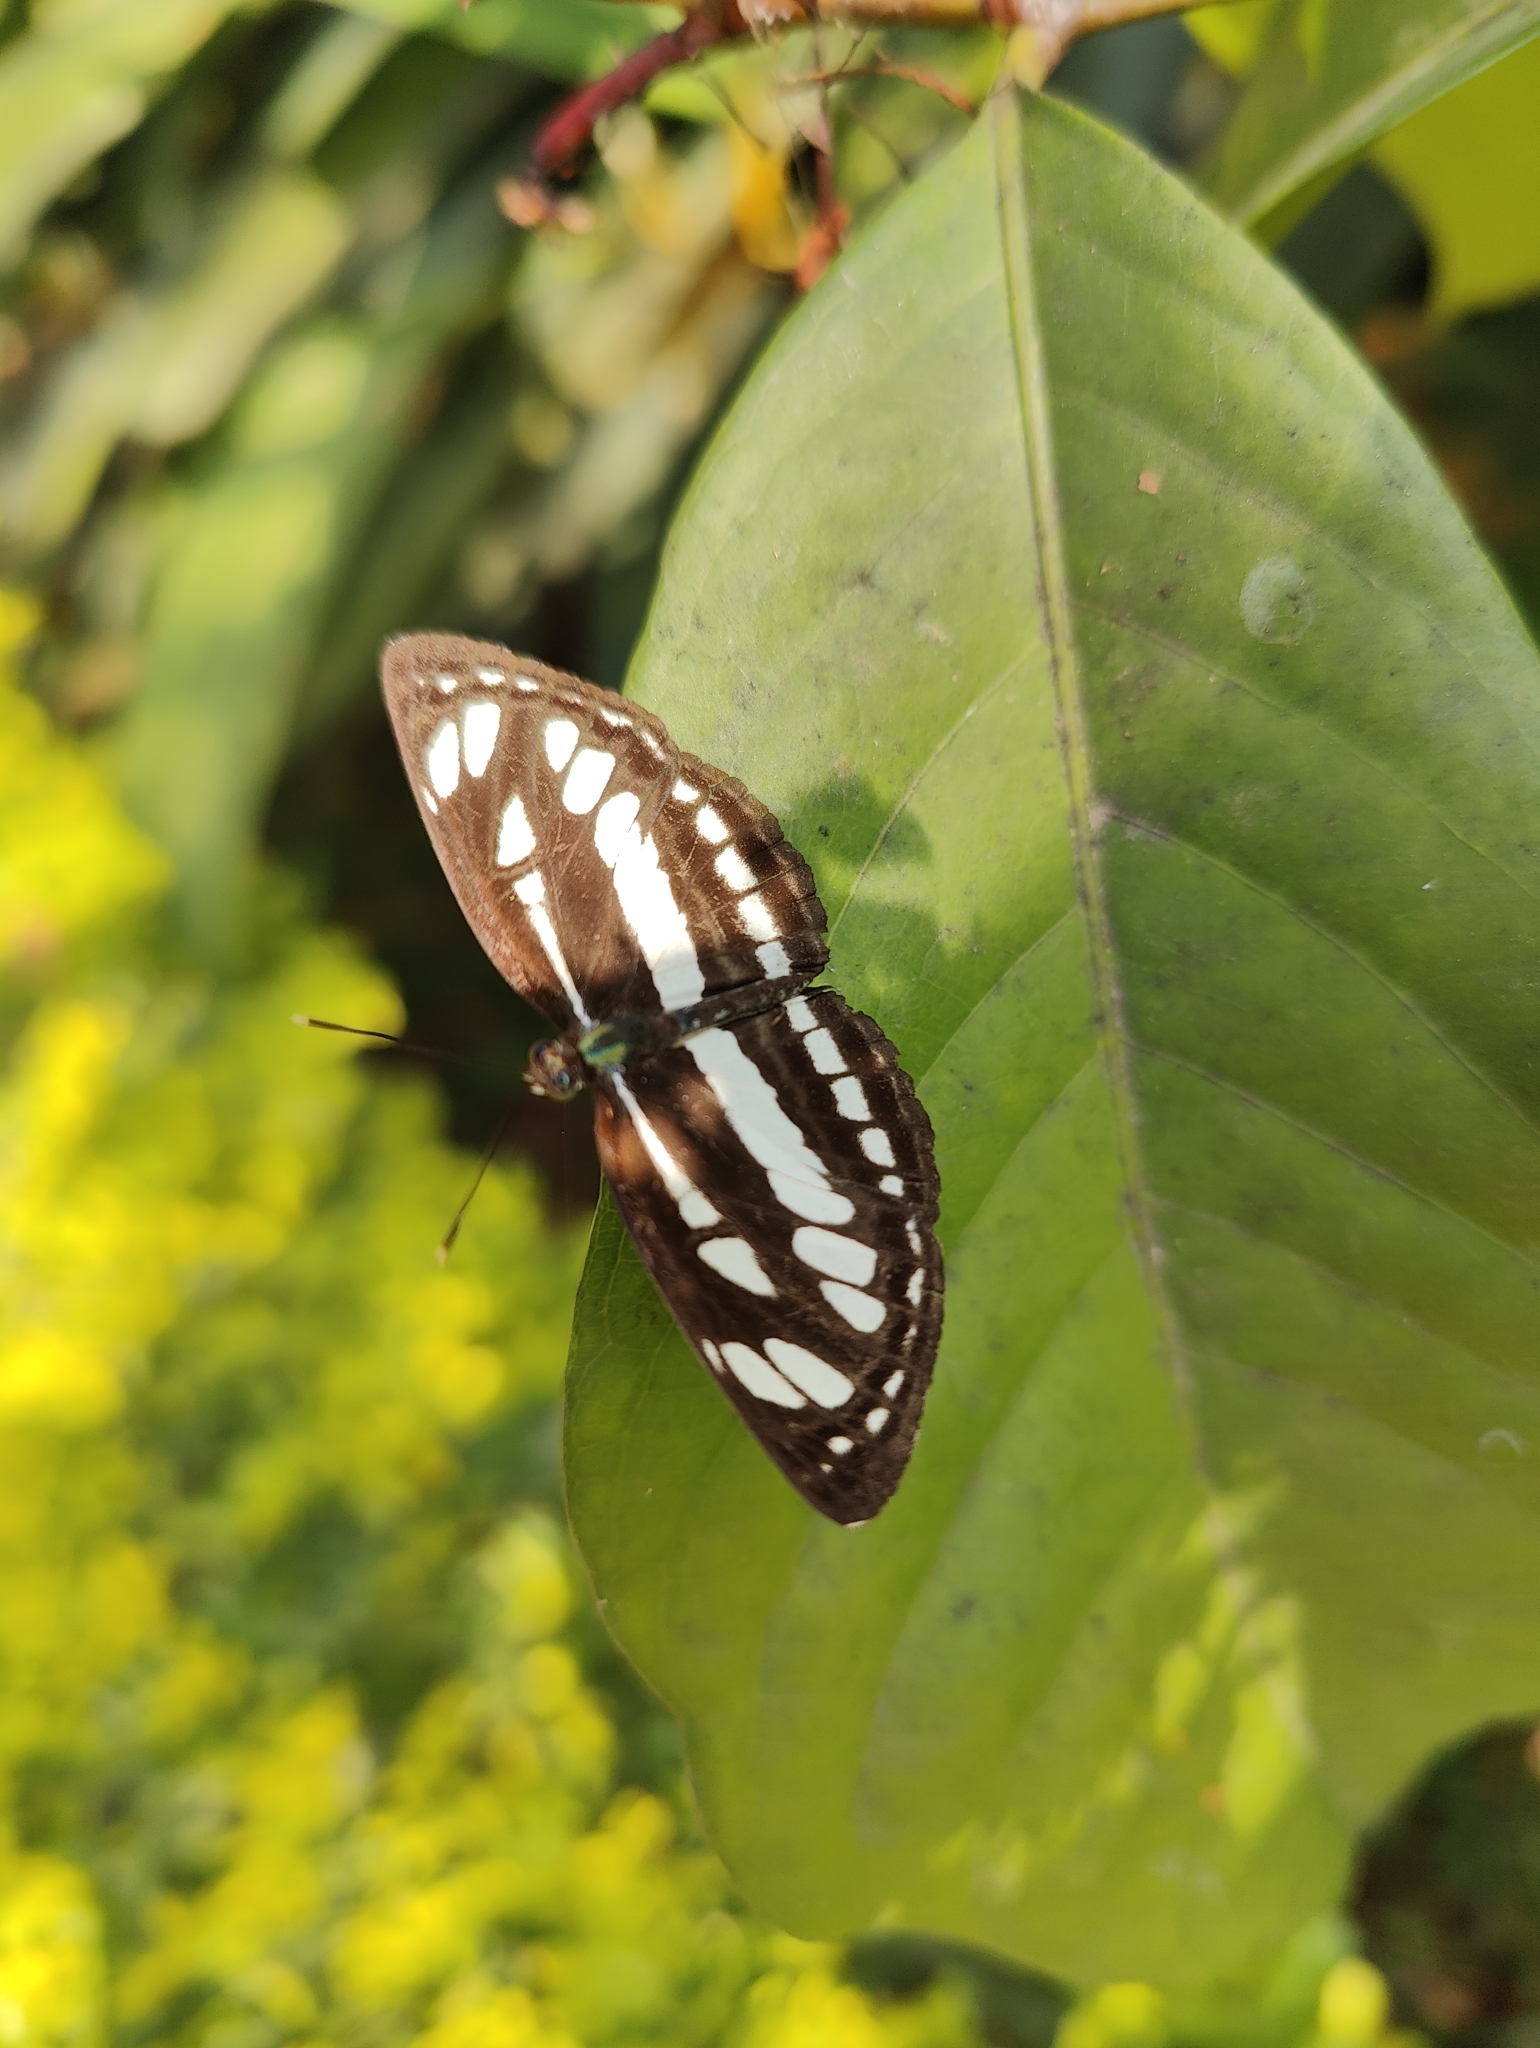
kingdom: Animalia
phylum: Arthropoda
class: Insecta
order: Lepidoptera
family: Nymphalidae
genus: Neptis
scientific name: Neptis hylas
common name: Common sailer
